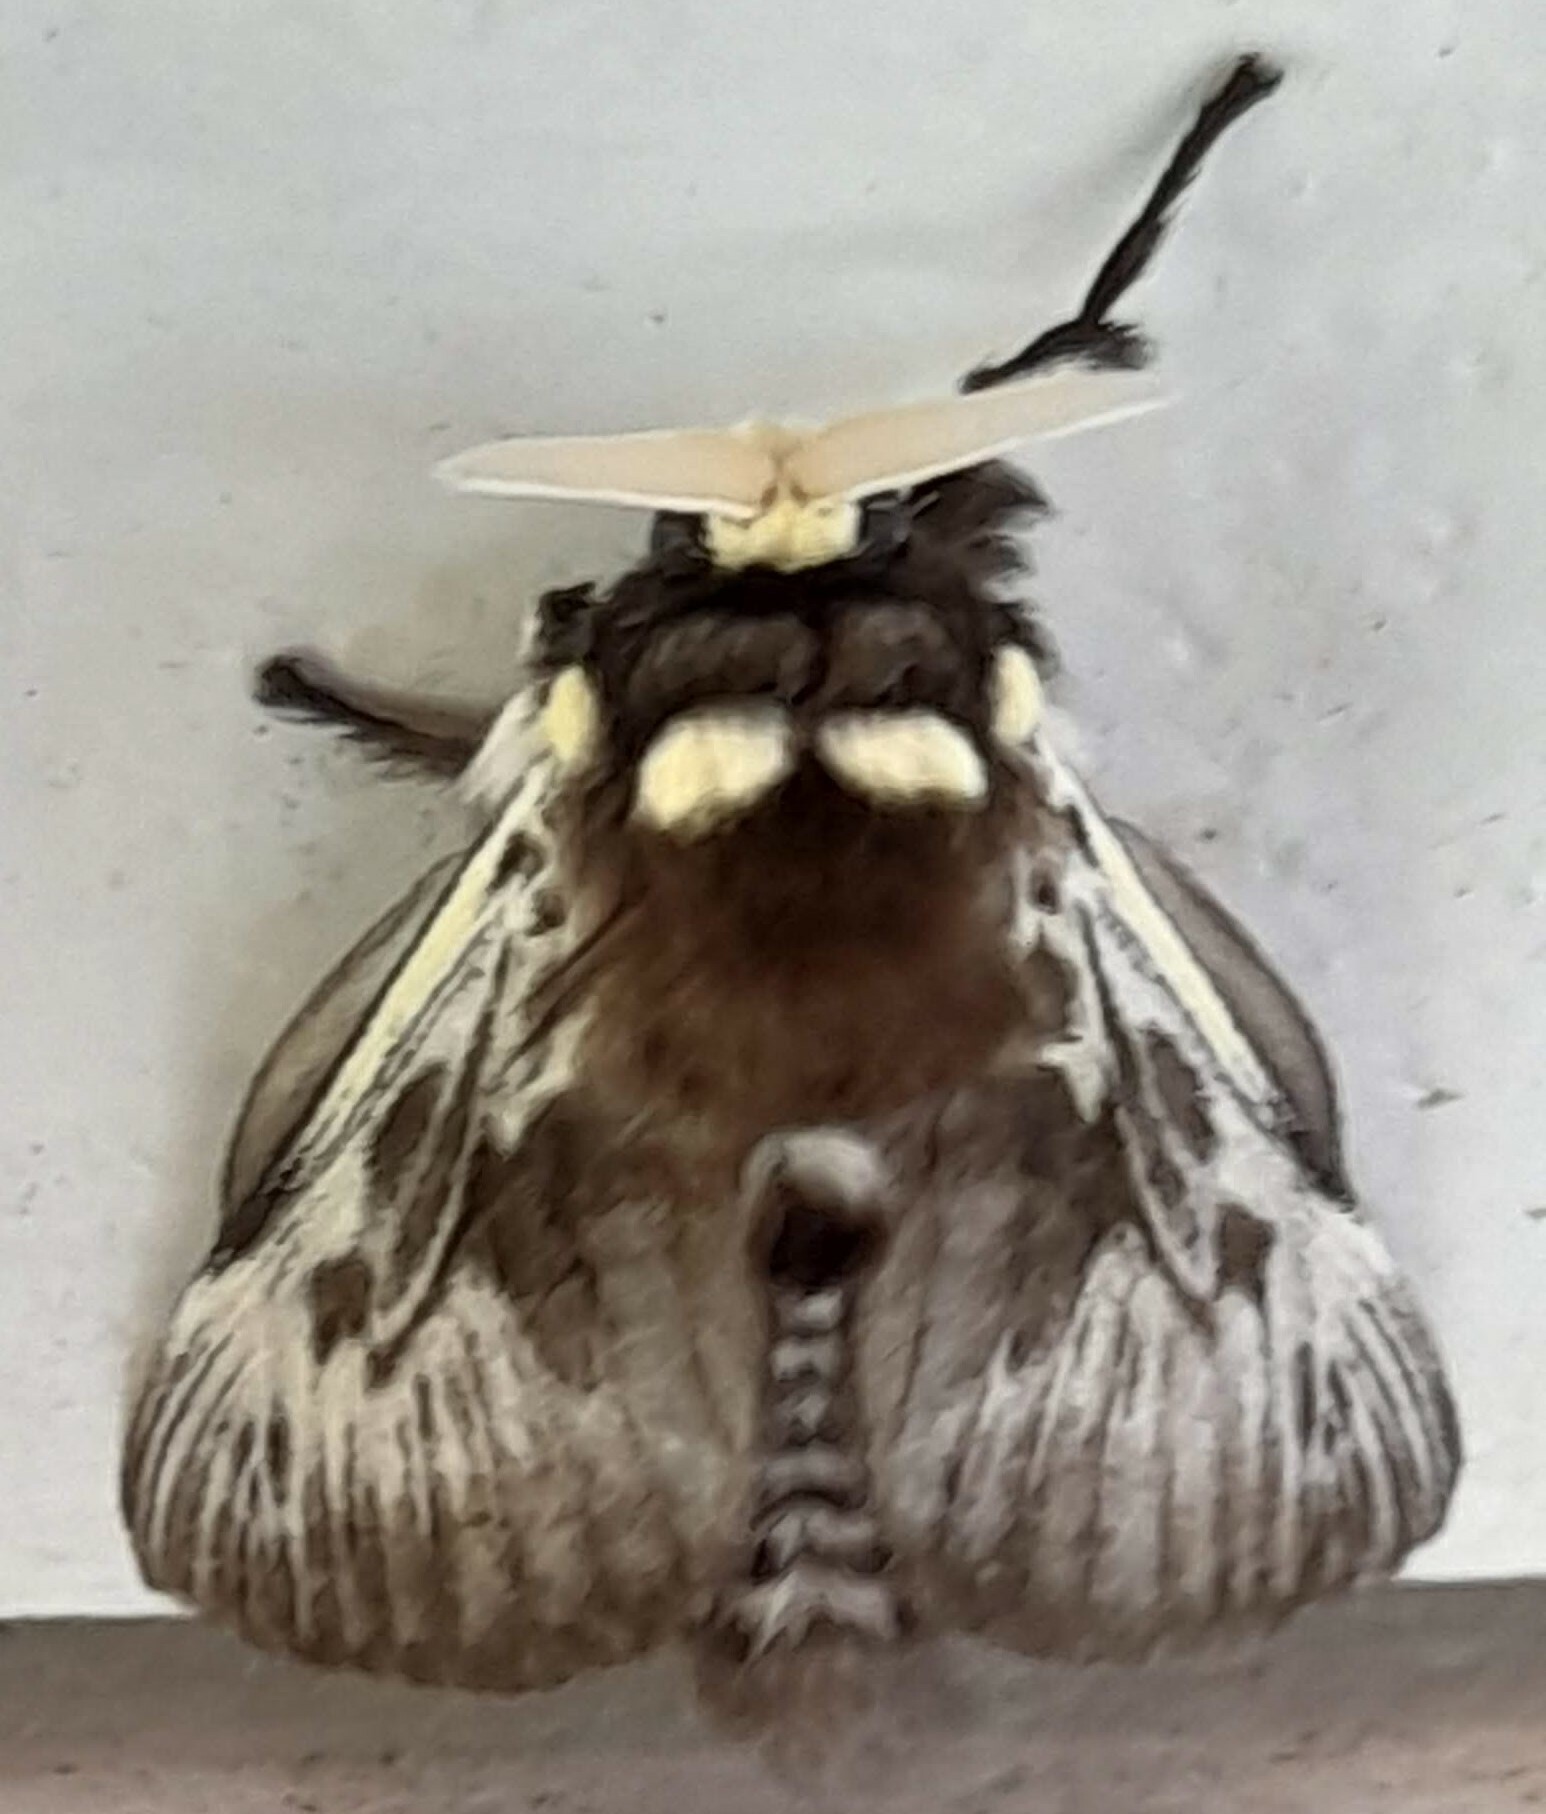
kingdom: Animalia
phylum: Arthropoda
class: Insecta
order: Lepidoptera
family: Megalopygidae
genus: Megalopyge
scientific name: Megalopyge albicollis
